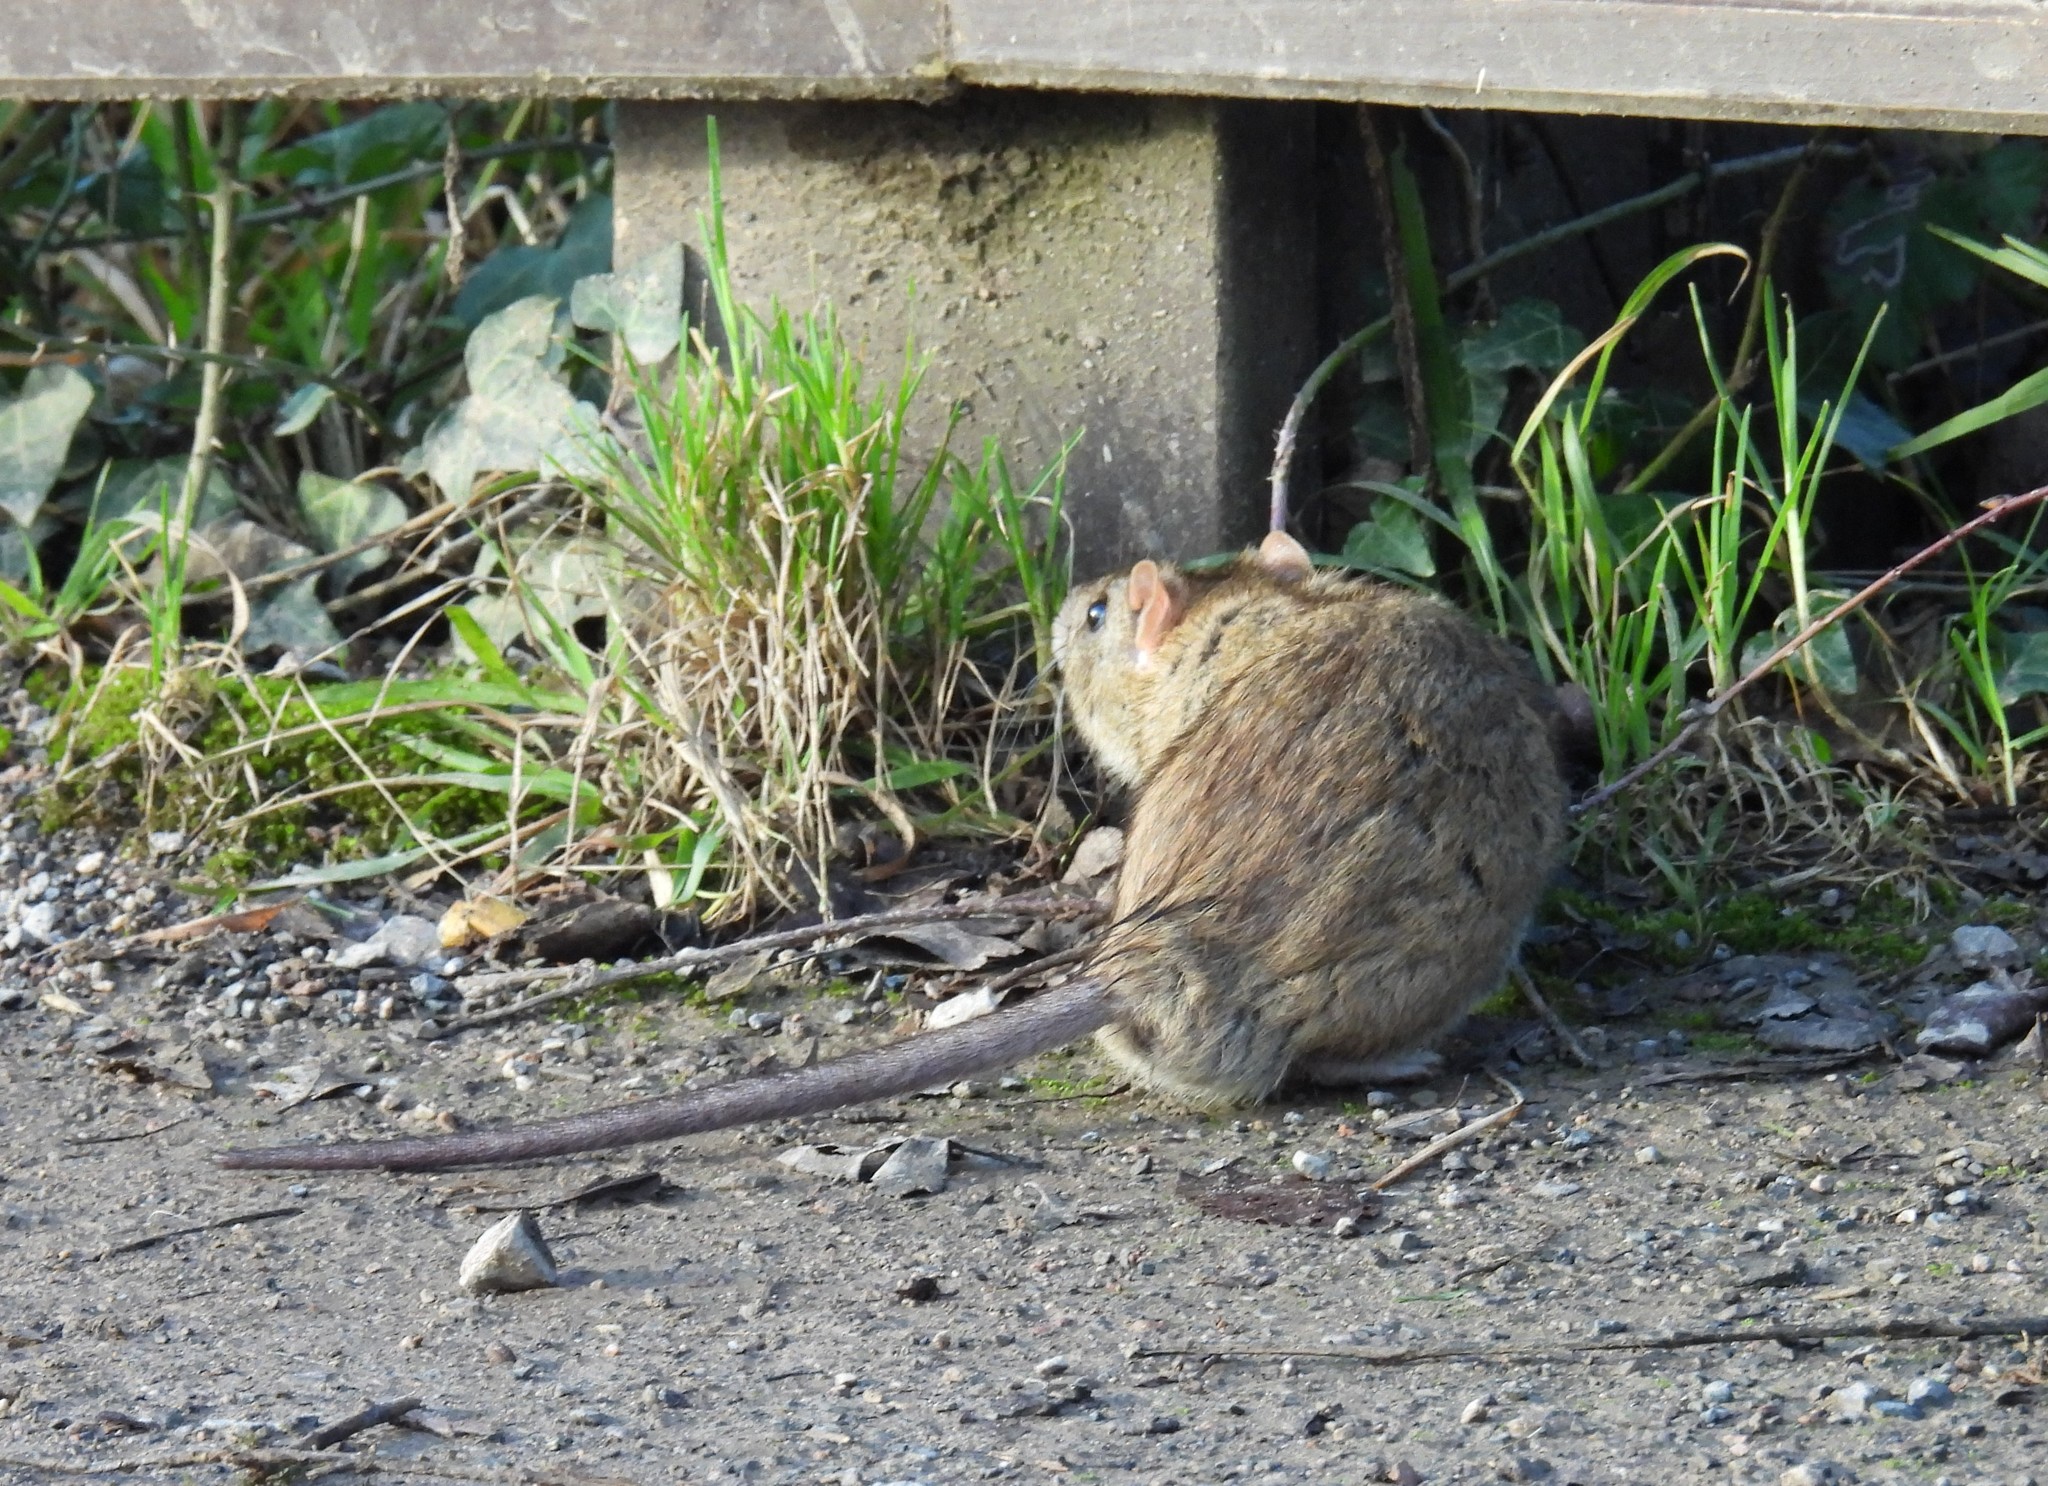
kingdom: Animalia
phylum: Chordata
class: Mammalia
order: Rodentia
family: Muridae
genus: Rattus
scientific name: Rattus norvegicus
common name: Brown rat
